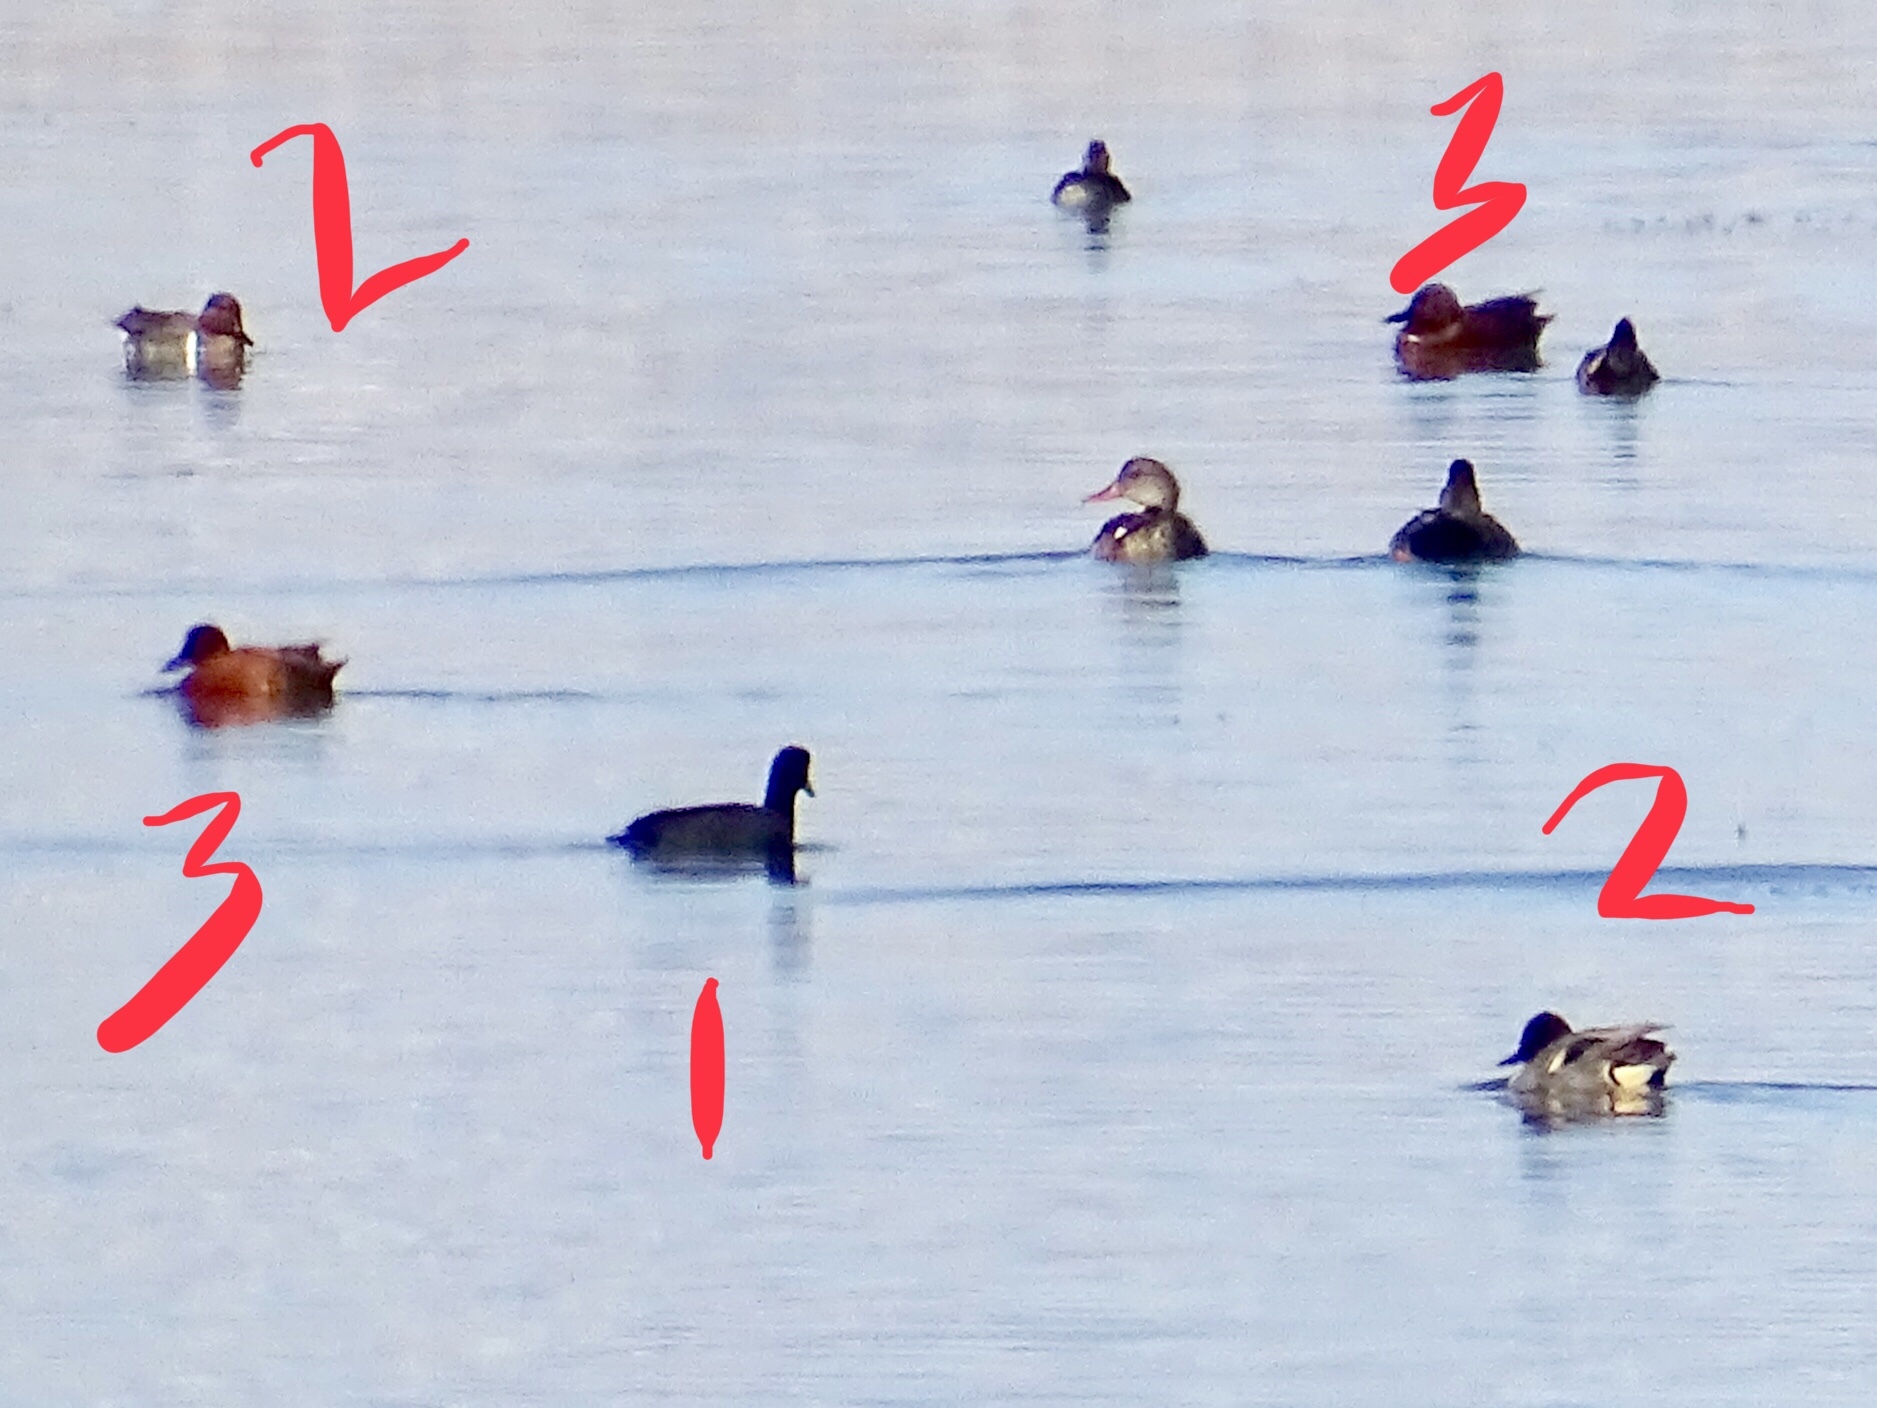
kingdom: Animalia
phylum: Chordata
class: Aves
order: Gruiformes
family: Rallidae
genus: Fulica
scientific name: Fulica americana
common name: American coot
